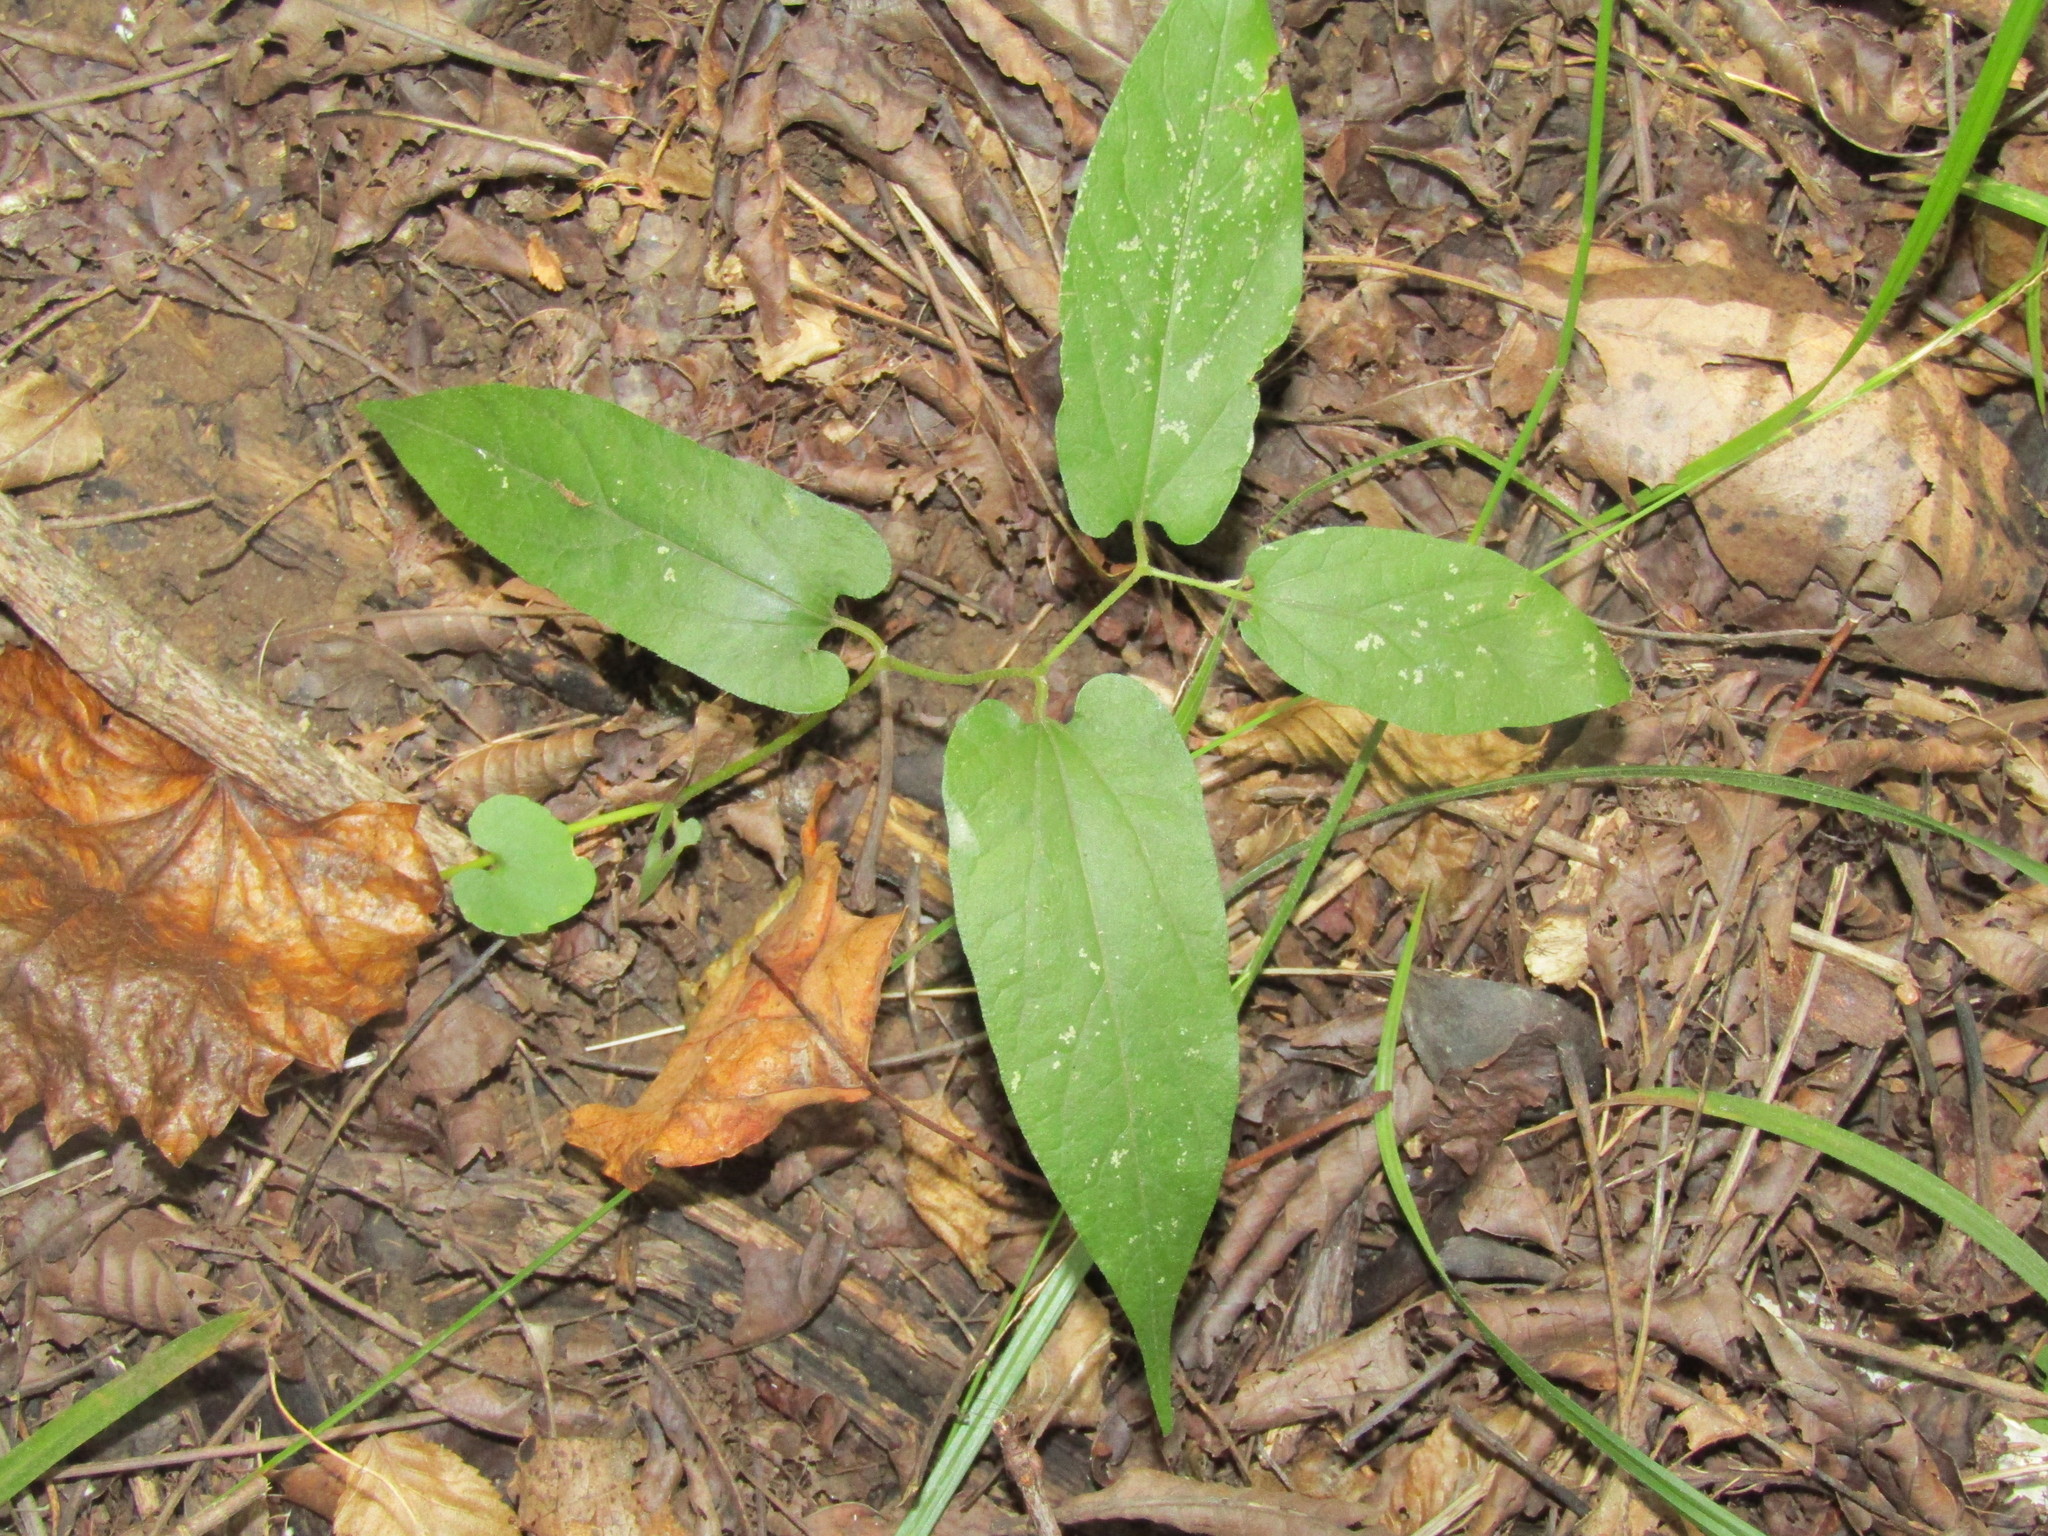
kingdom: Plantae
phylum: Tracheophyta
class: Magnoliopsida
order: Piperales
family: Aristolochiaceae
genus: Endodeca
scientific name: Endodeca serpentaria
